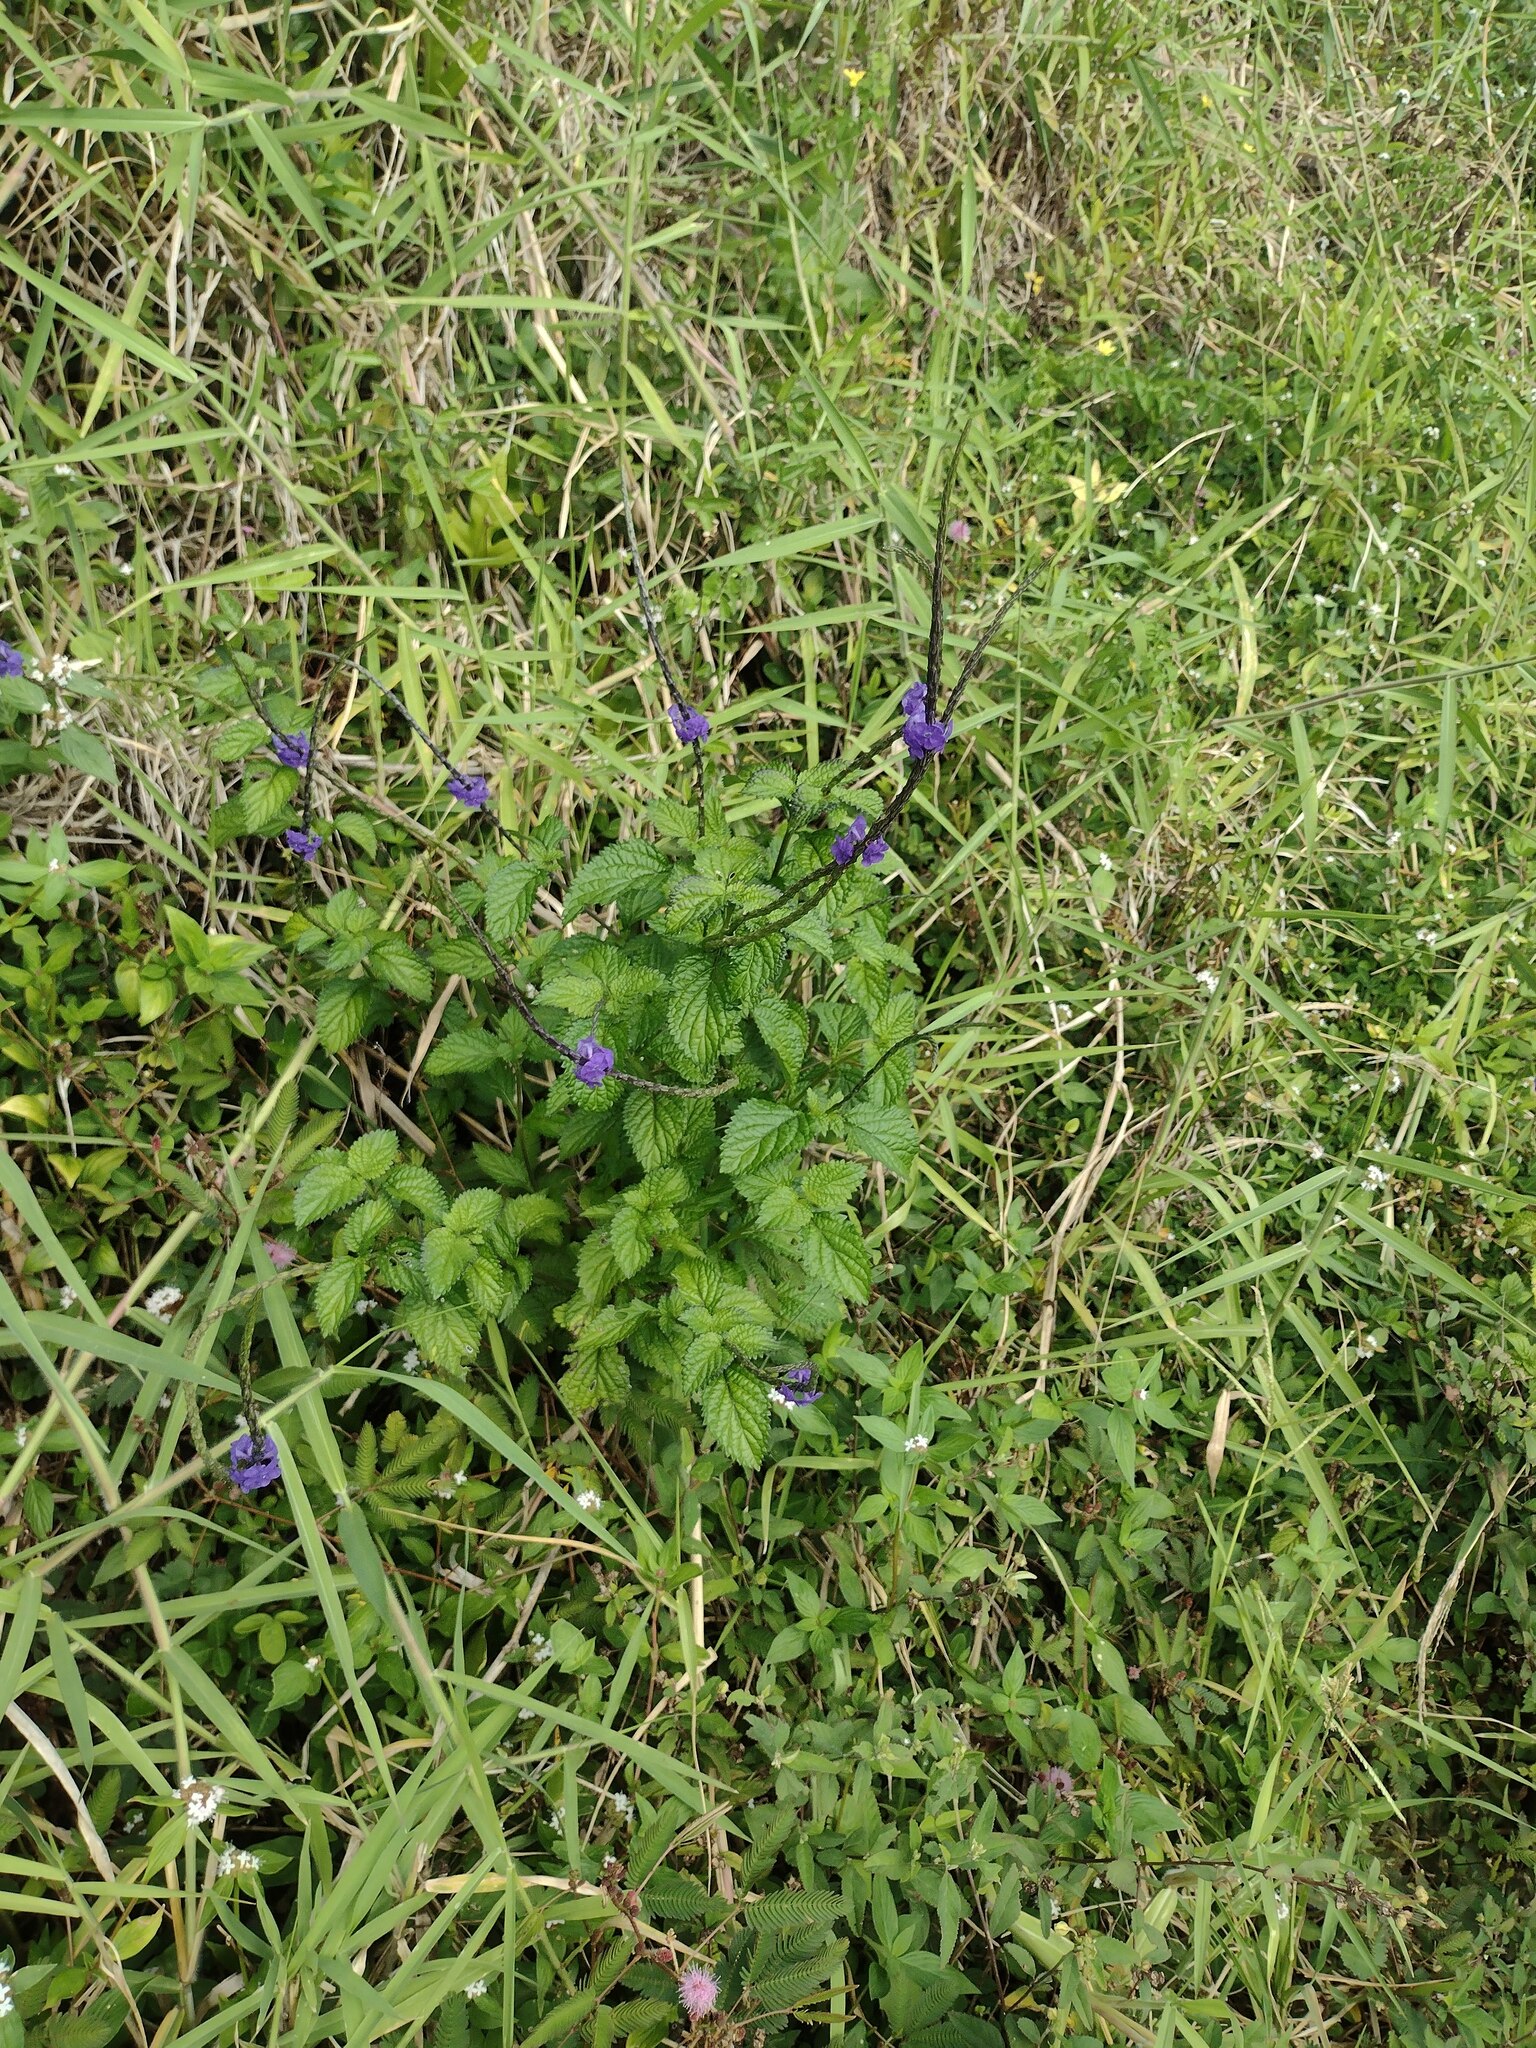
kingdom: Plantae
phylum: Tracheophyta
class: Magnoliopsida
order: Lamiales
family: Verbenaceae
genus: Stachytarpheta
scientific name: Stachytarpheta cayennensis
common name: Cayenne porterweed
